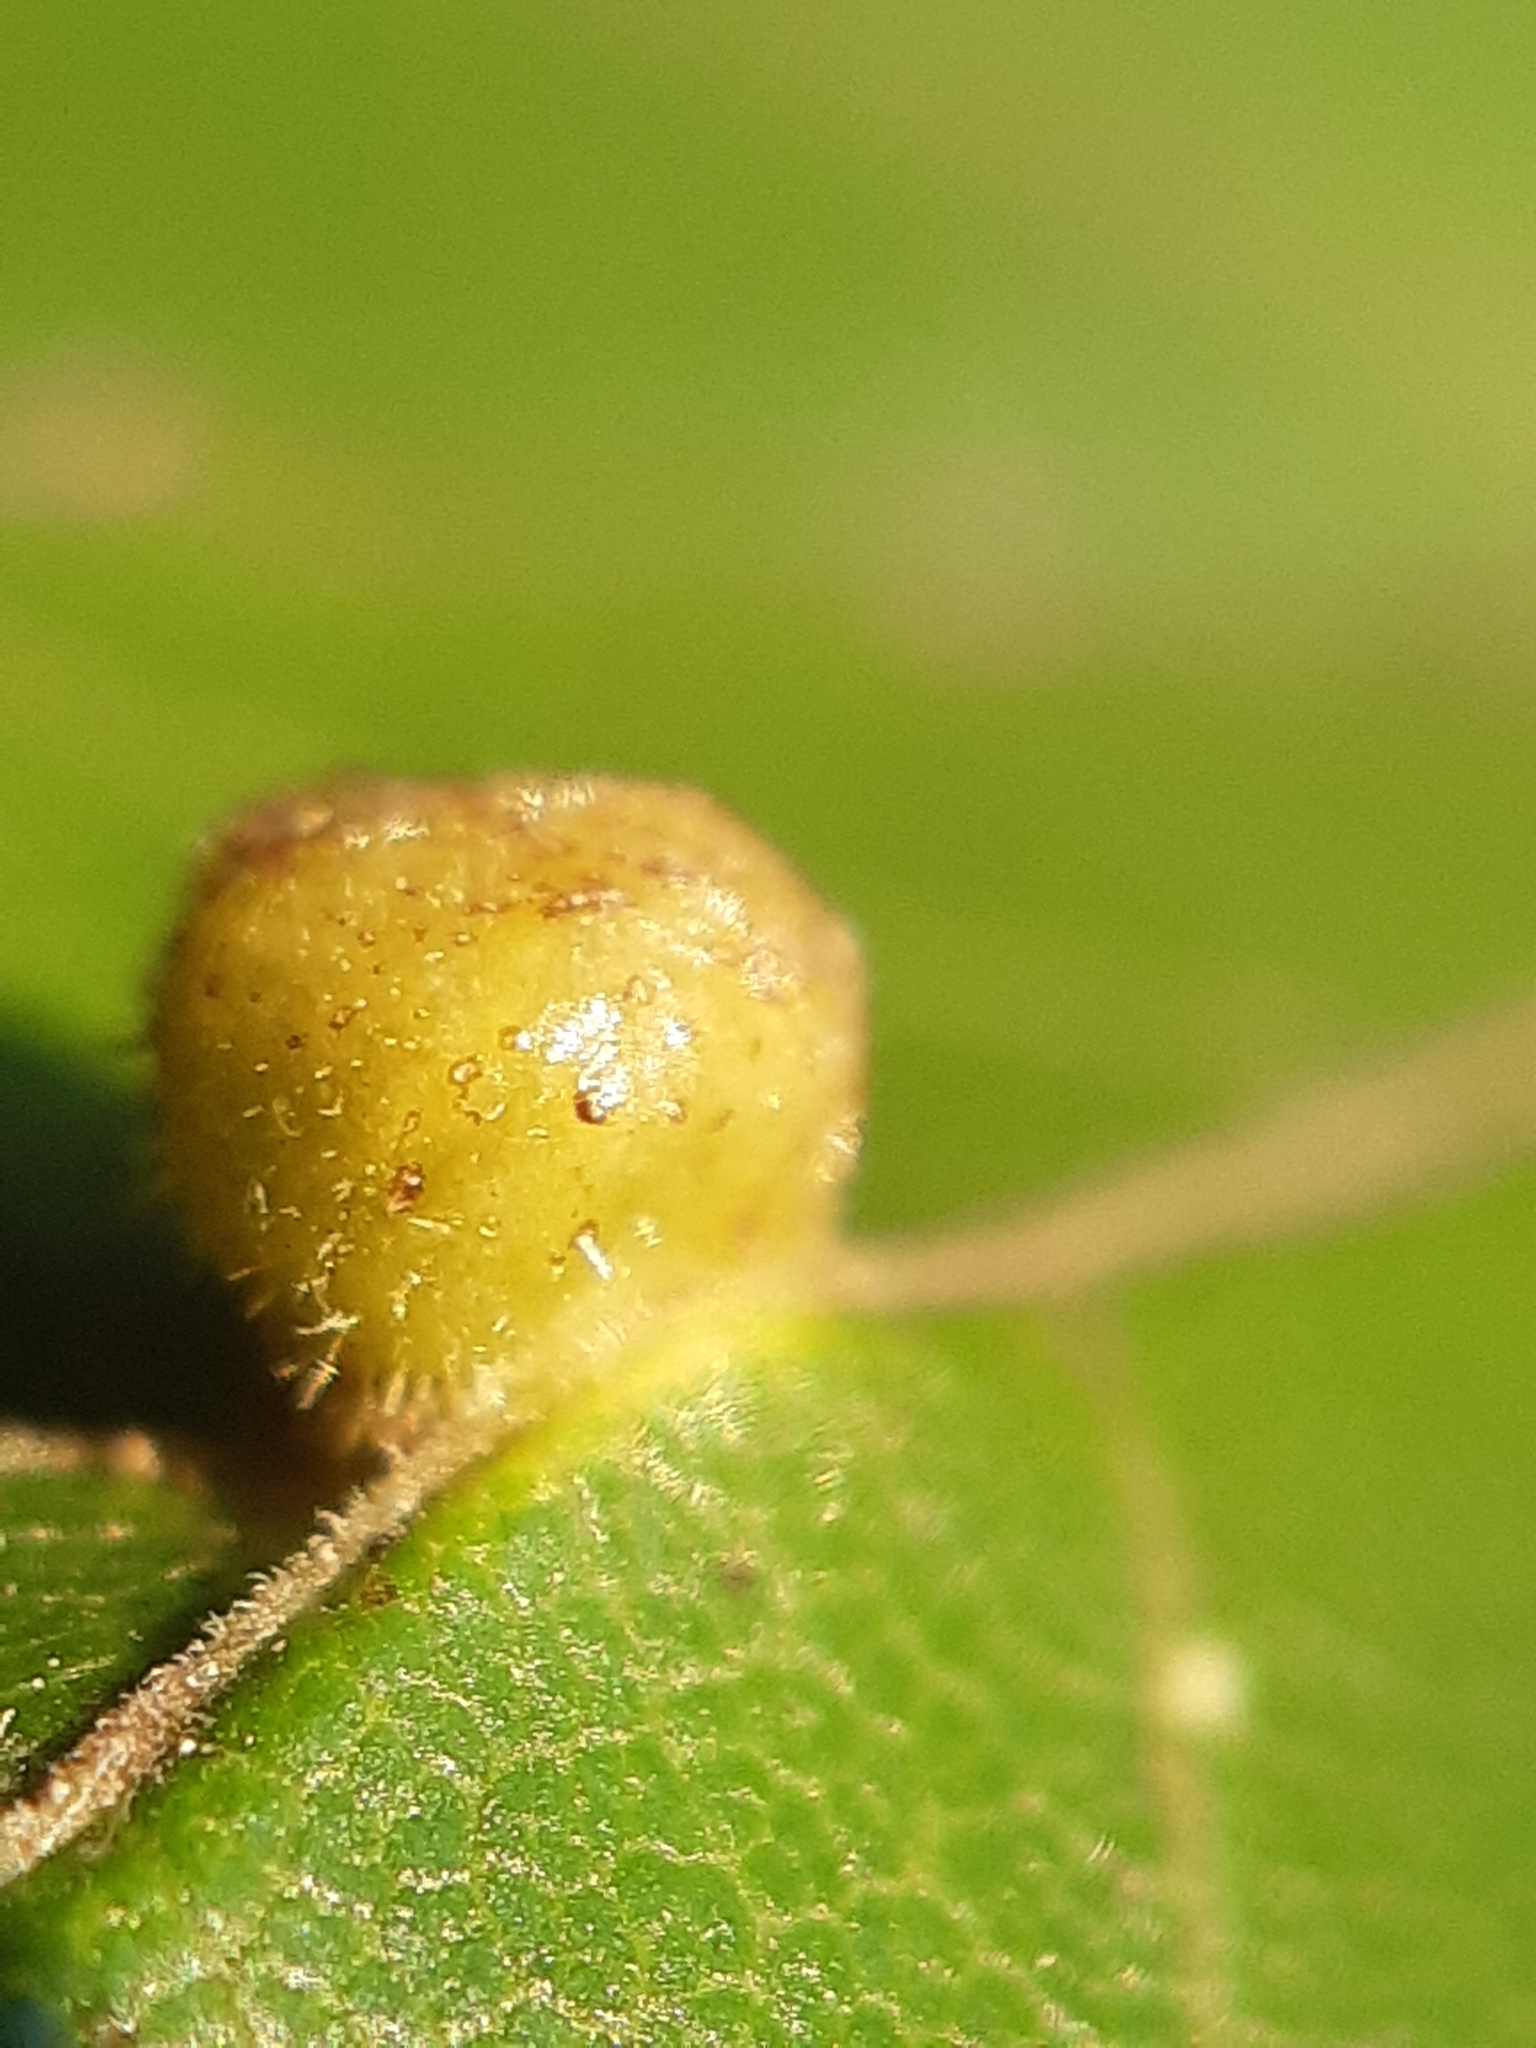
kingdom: Animalia
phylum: Arthropoda
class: Arachnida
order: Trombidiformes
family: Eriophyidae
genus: Aceria
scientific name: Aceria macrochelus
